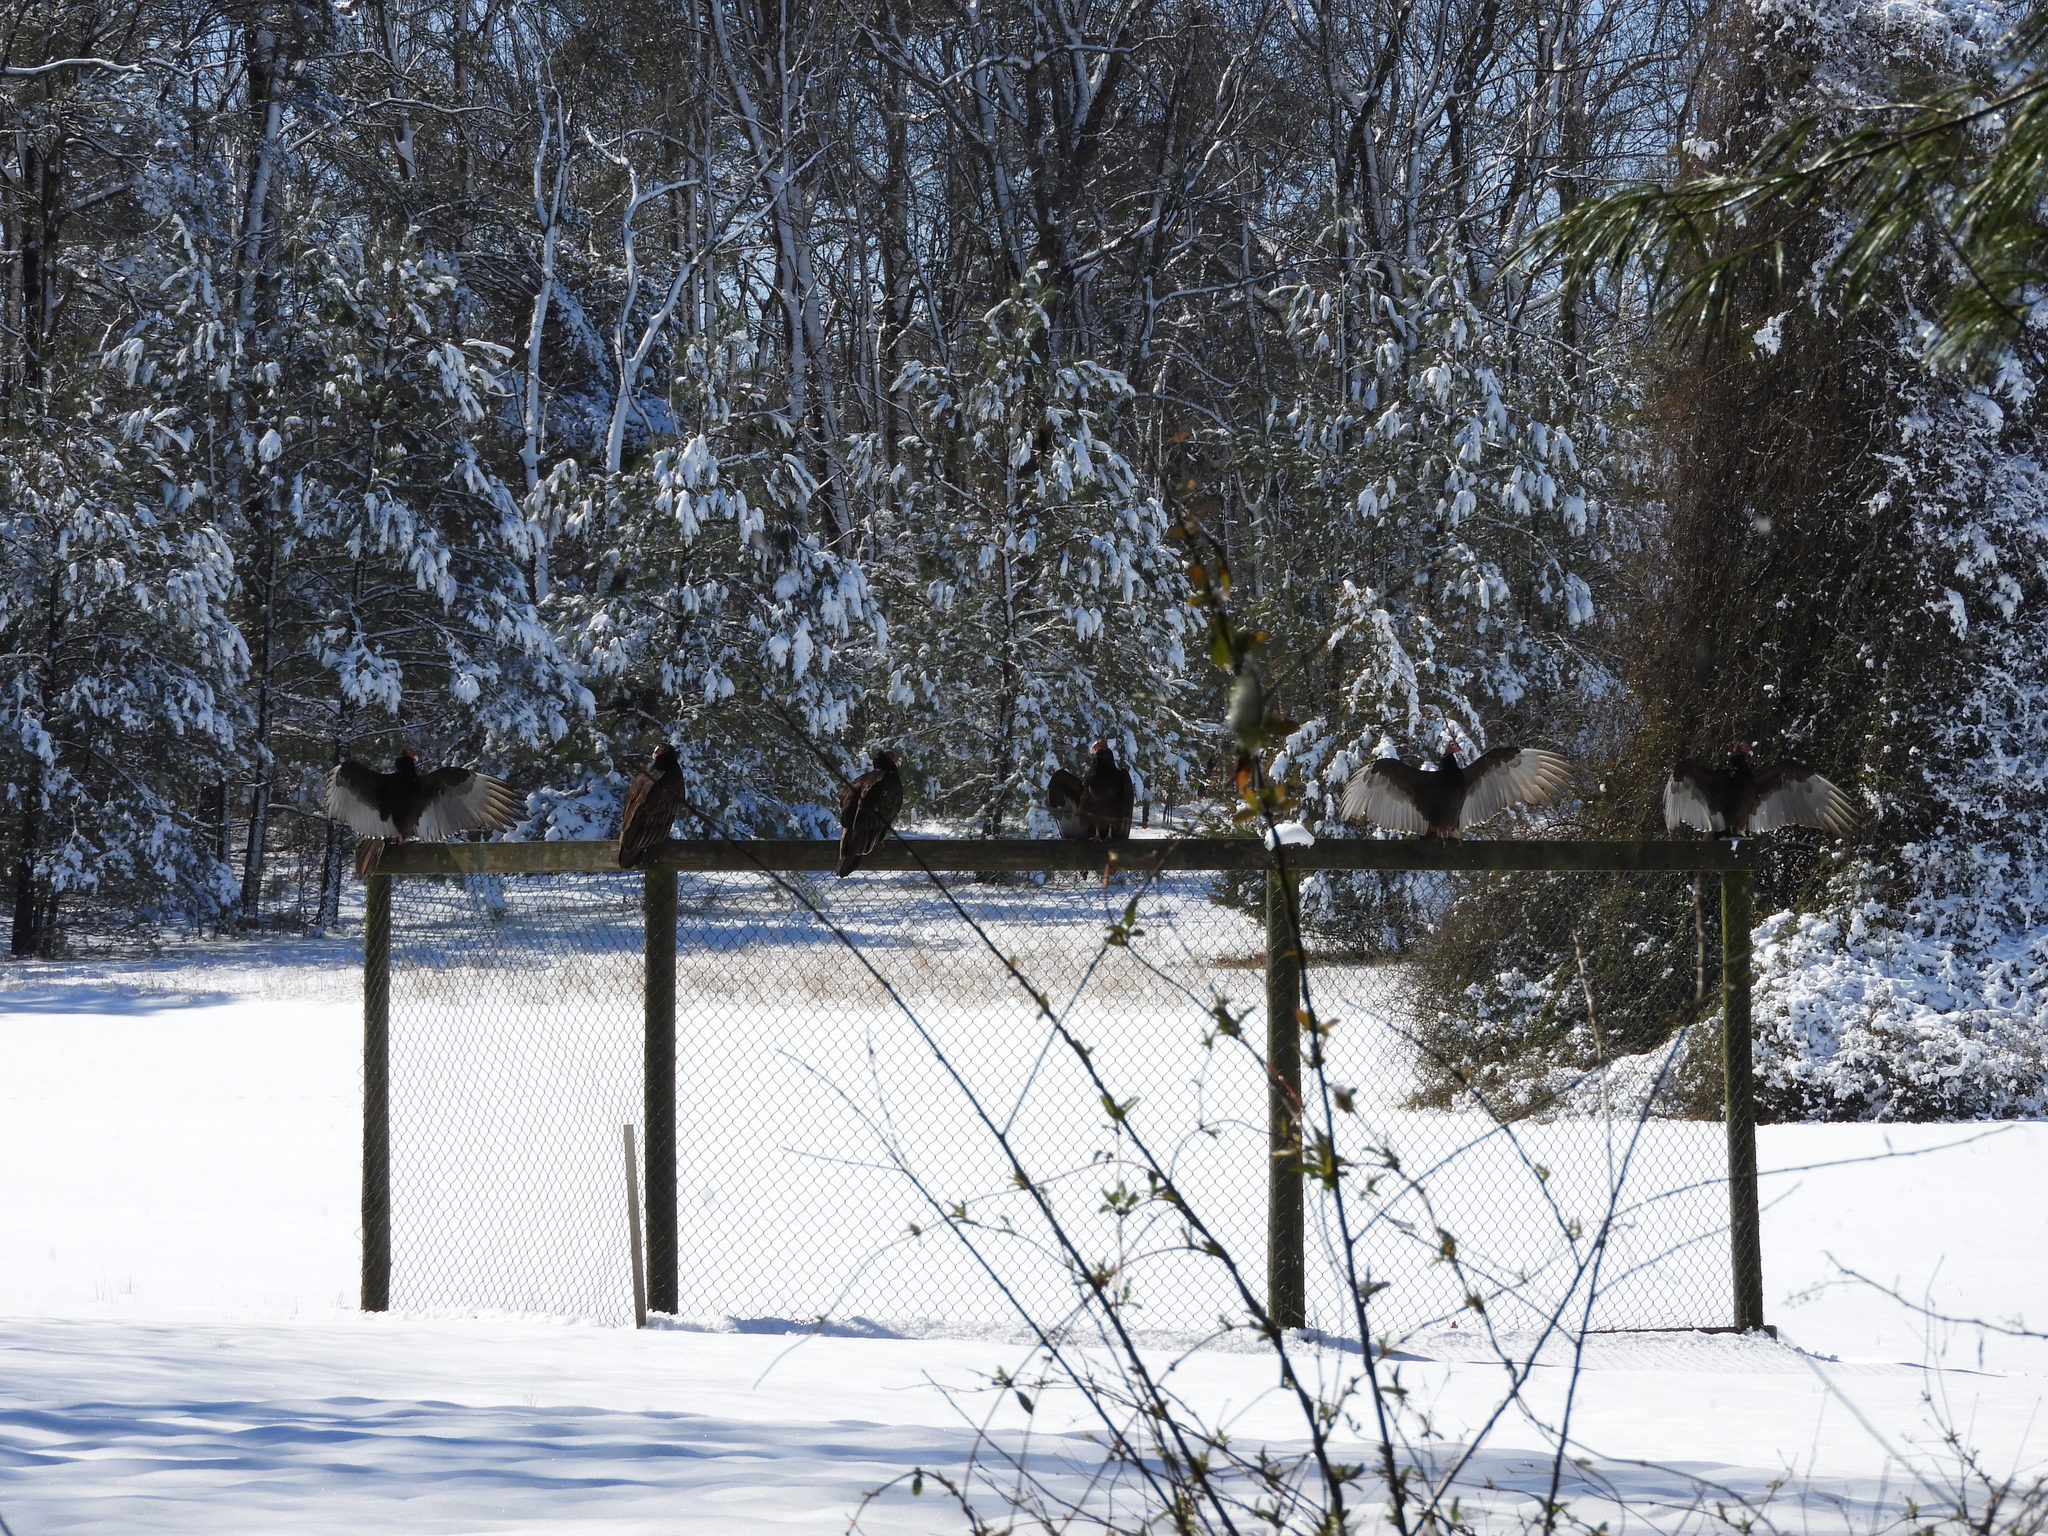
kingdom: Animalia
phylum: Chordata
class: Aves
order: Accipitriformes
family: Cathartidae
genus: Cathartes
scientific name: Cathartes aura
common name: Turkey vulture
